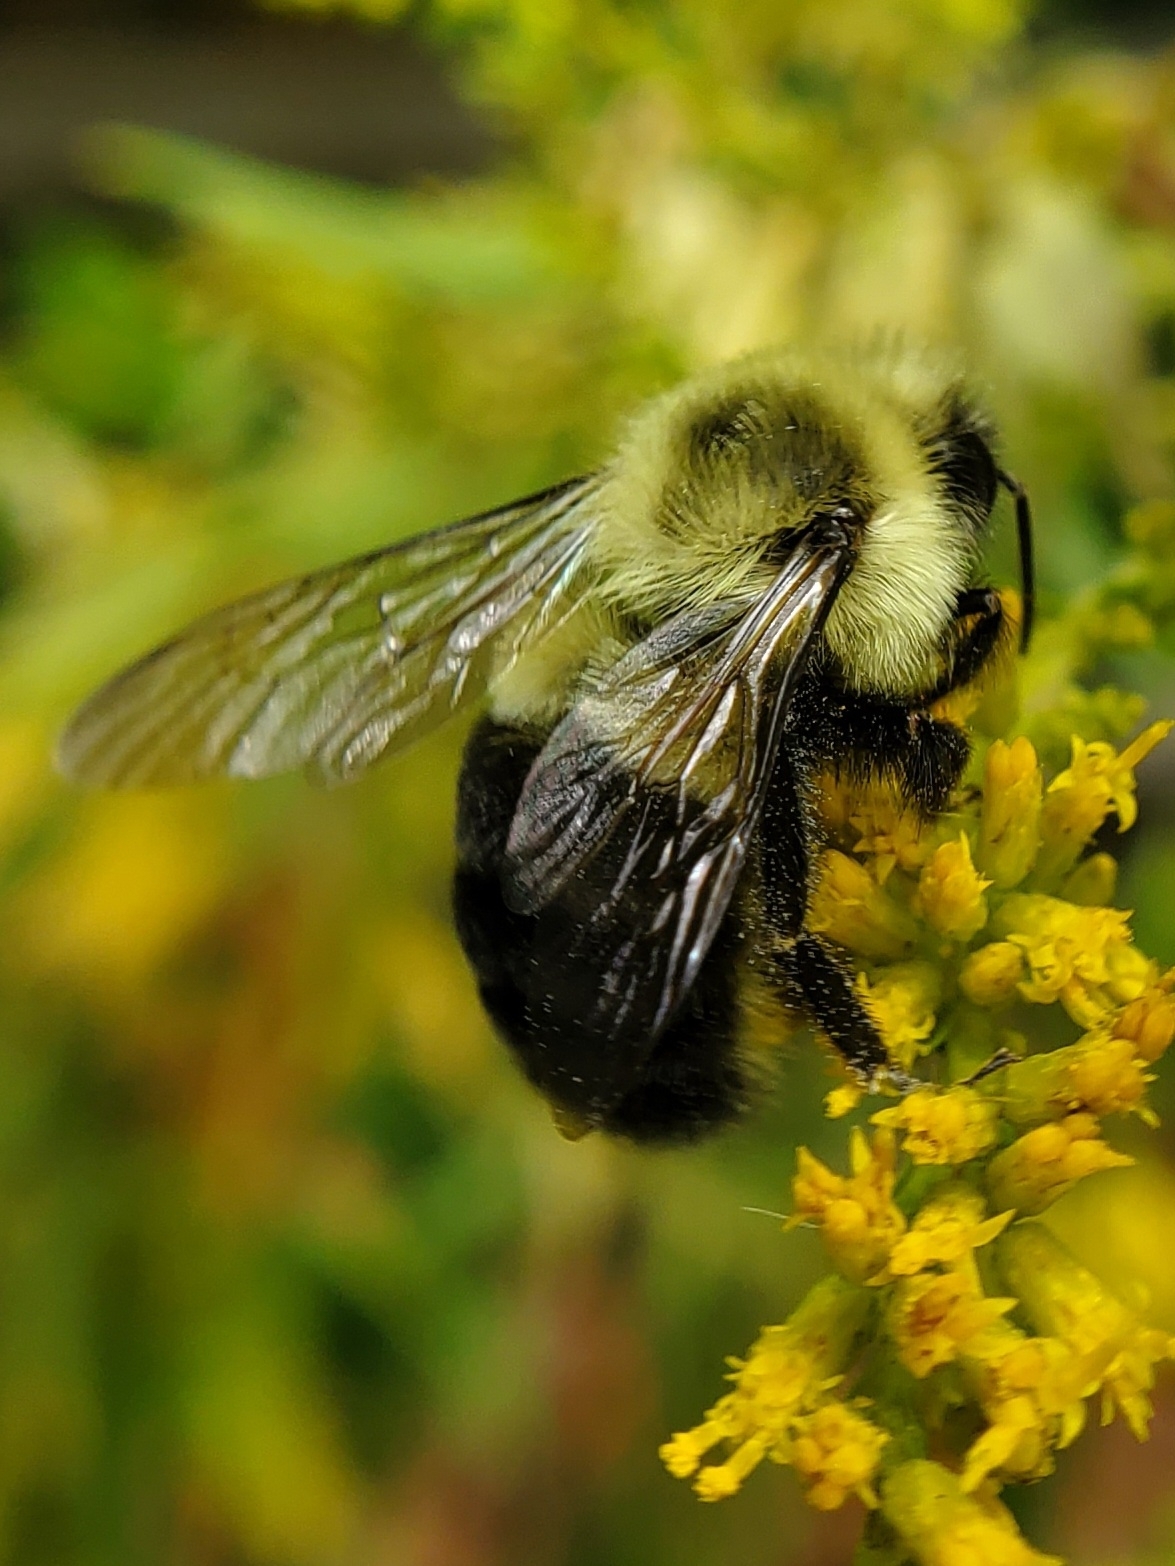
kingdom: Animalia
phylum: Arthropoda
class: Insecta
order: Hymenoptera
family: Apidae
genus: Bombus
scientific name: Bombus impatiens
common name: Common eastern bumble bee
